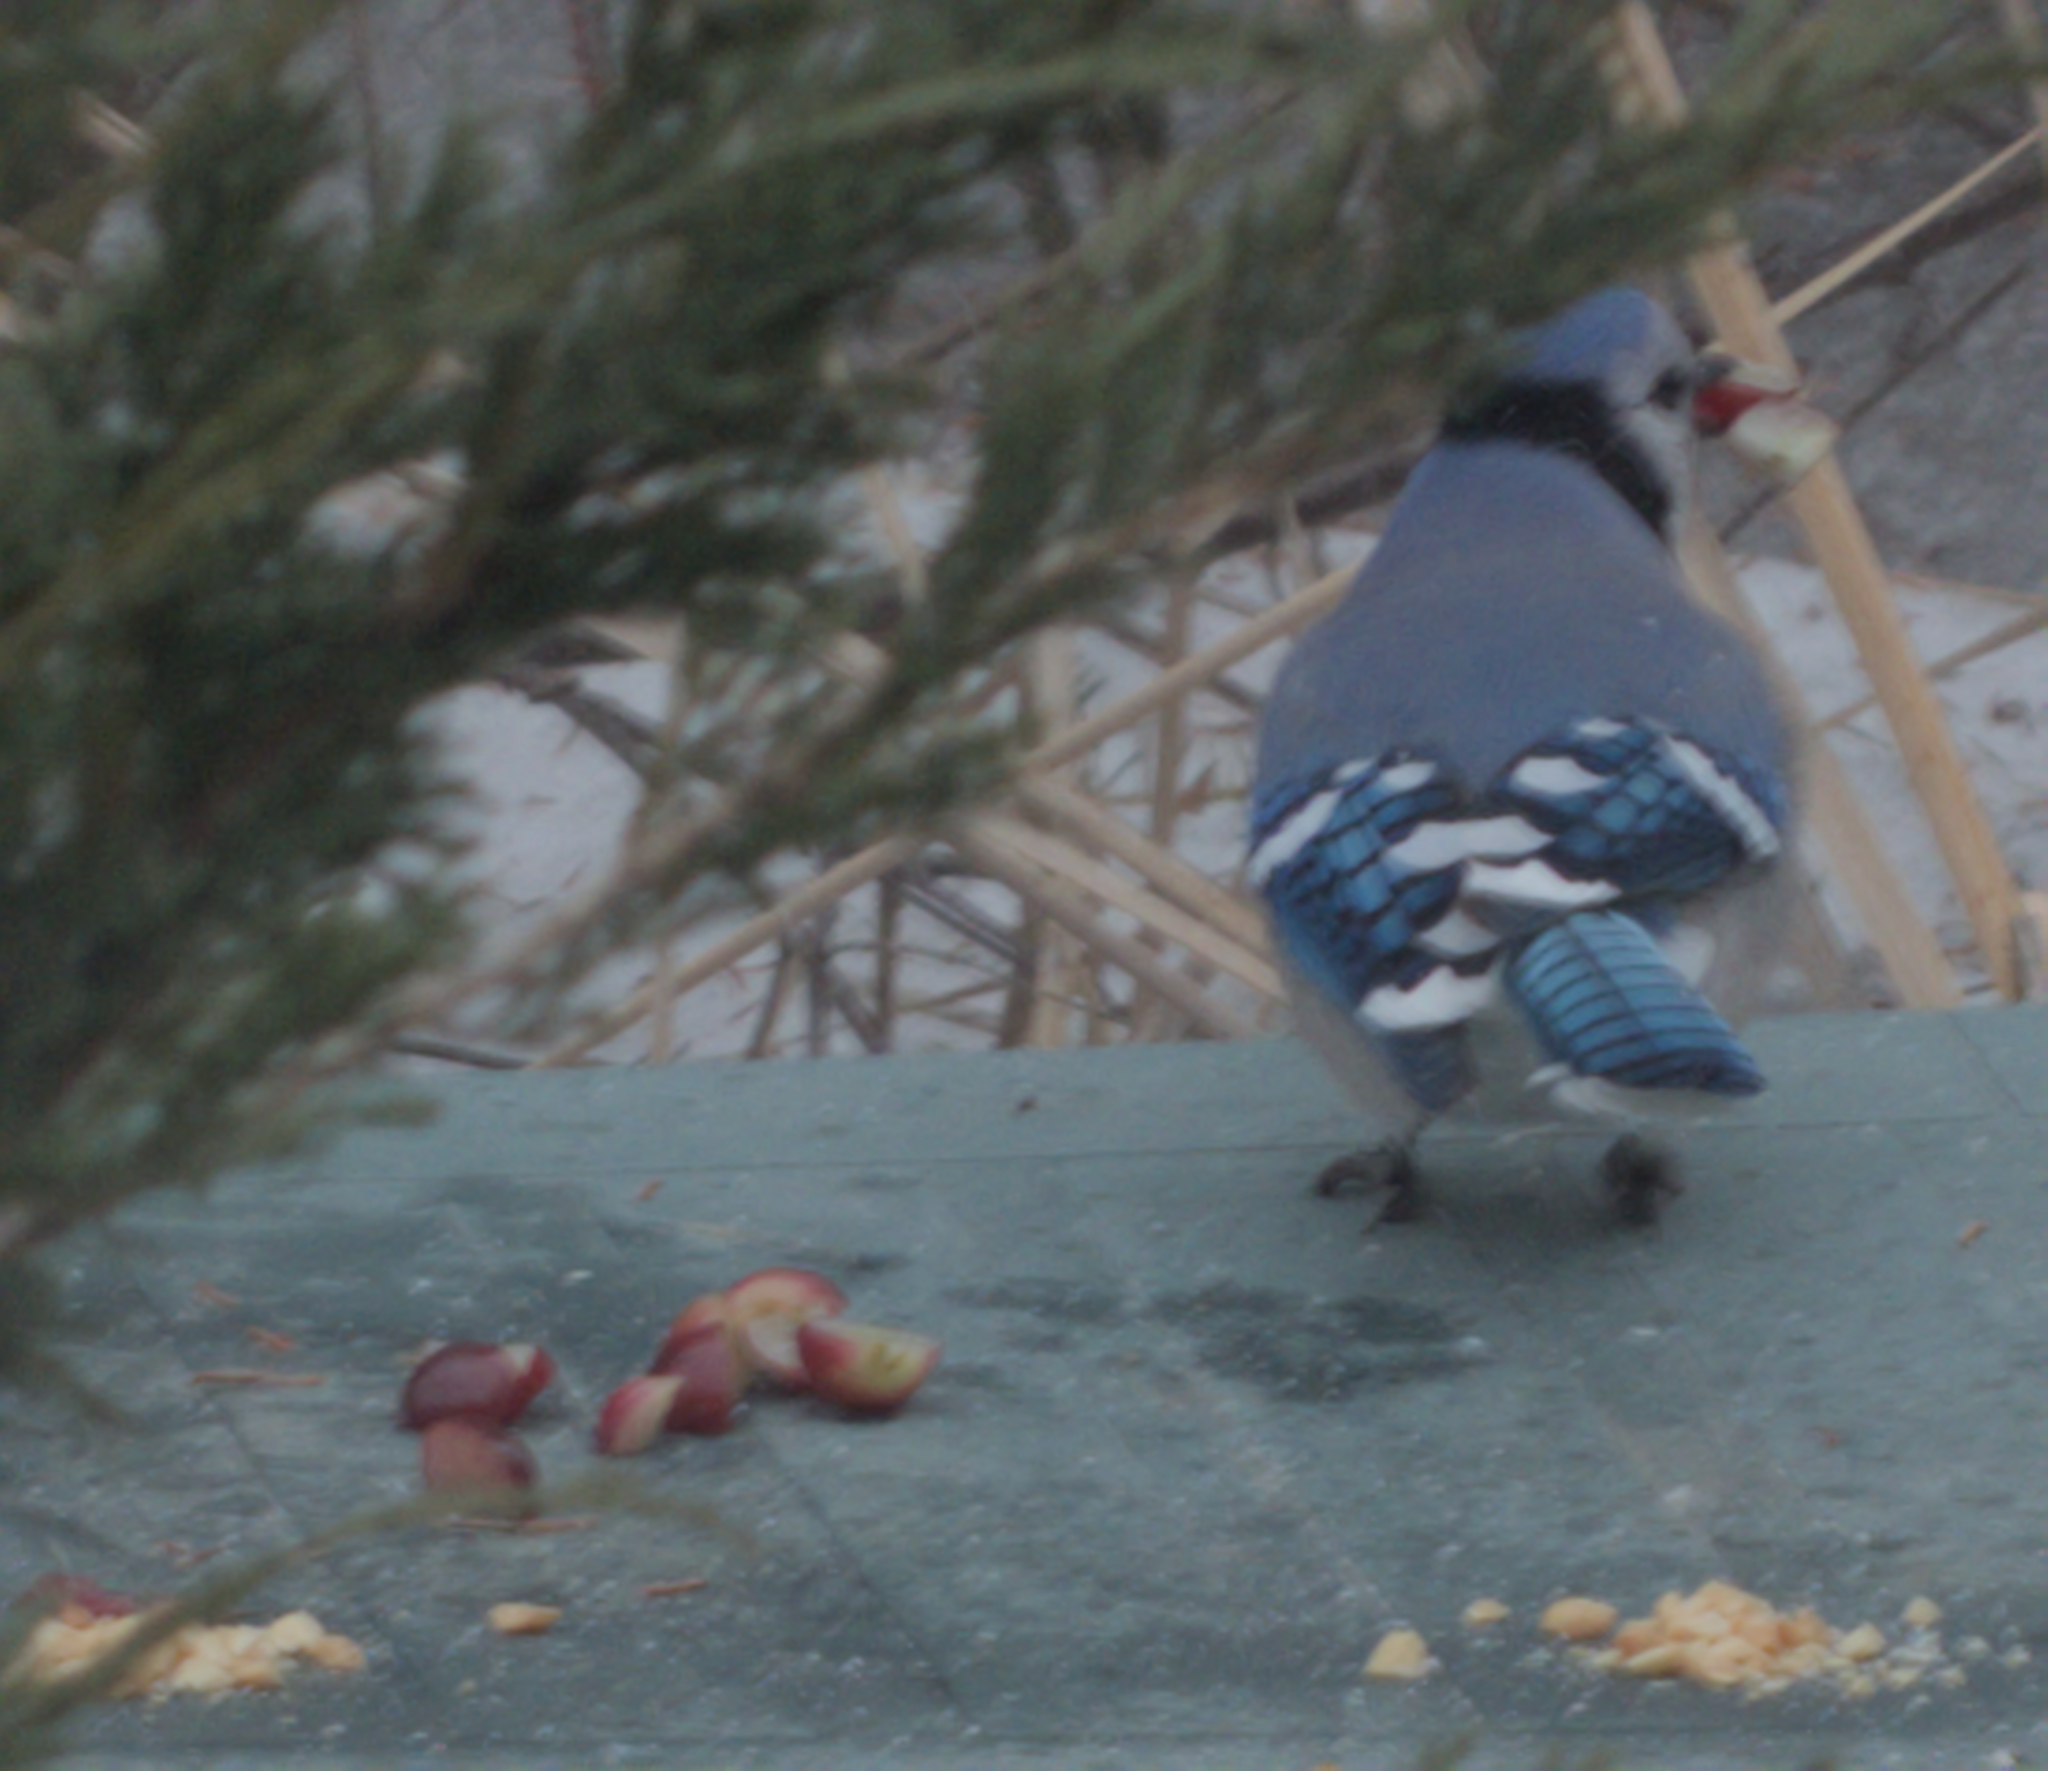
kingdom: Animalia
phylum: Chordata
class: Aves
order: Passeriformes
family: Corvidae
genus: Cyanocitta
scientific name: Cyanocitta cristata
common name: Blue jay
